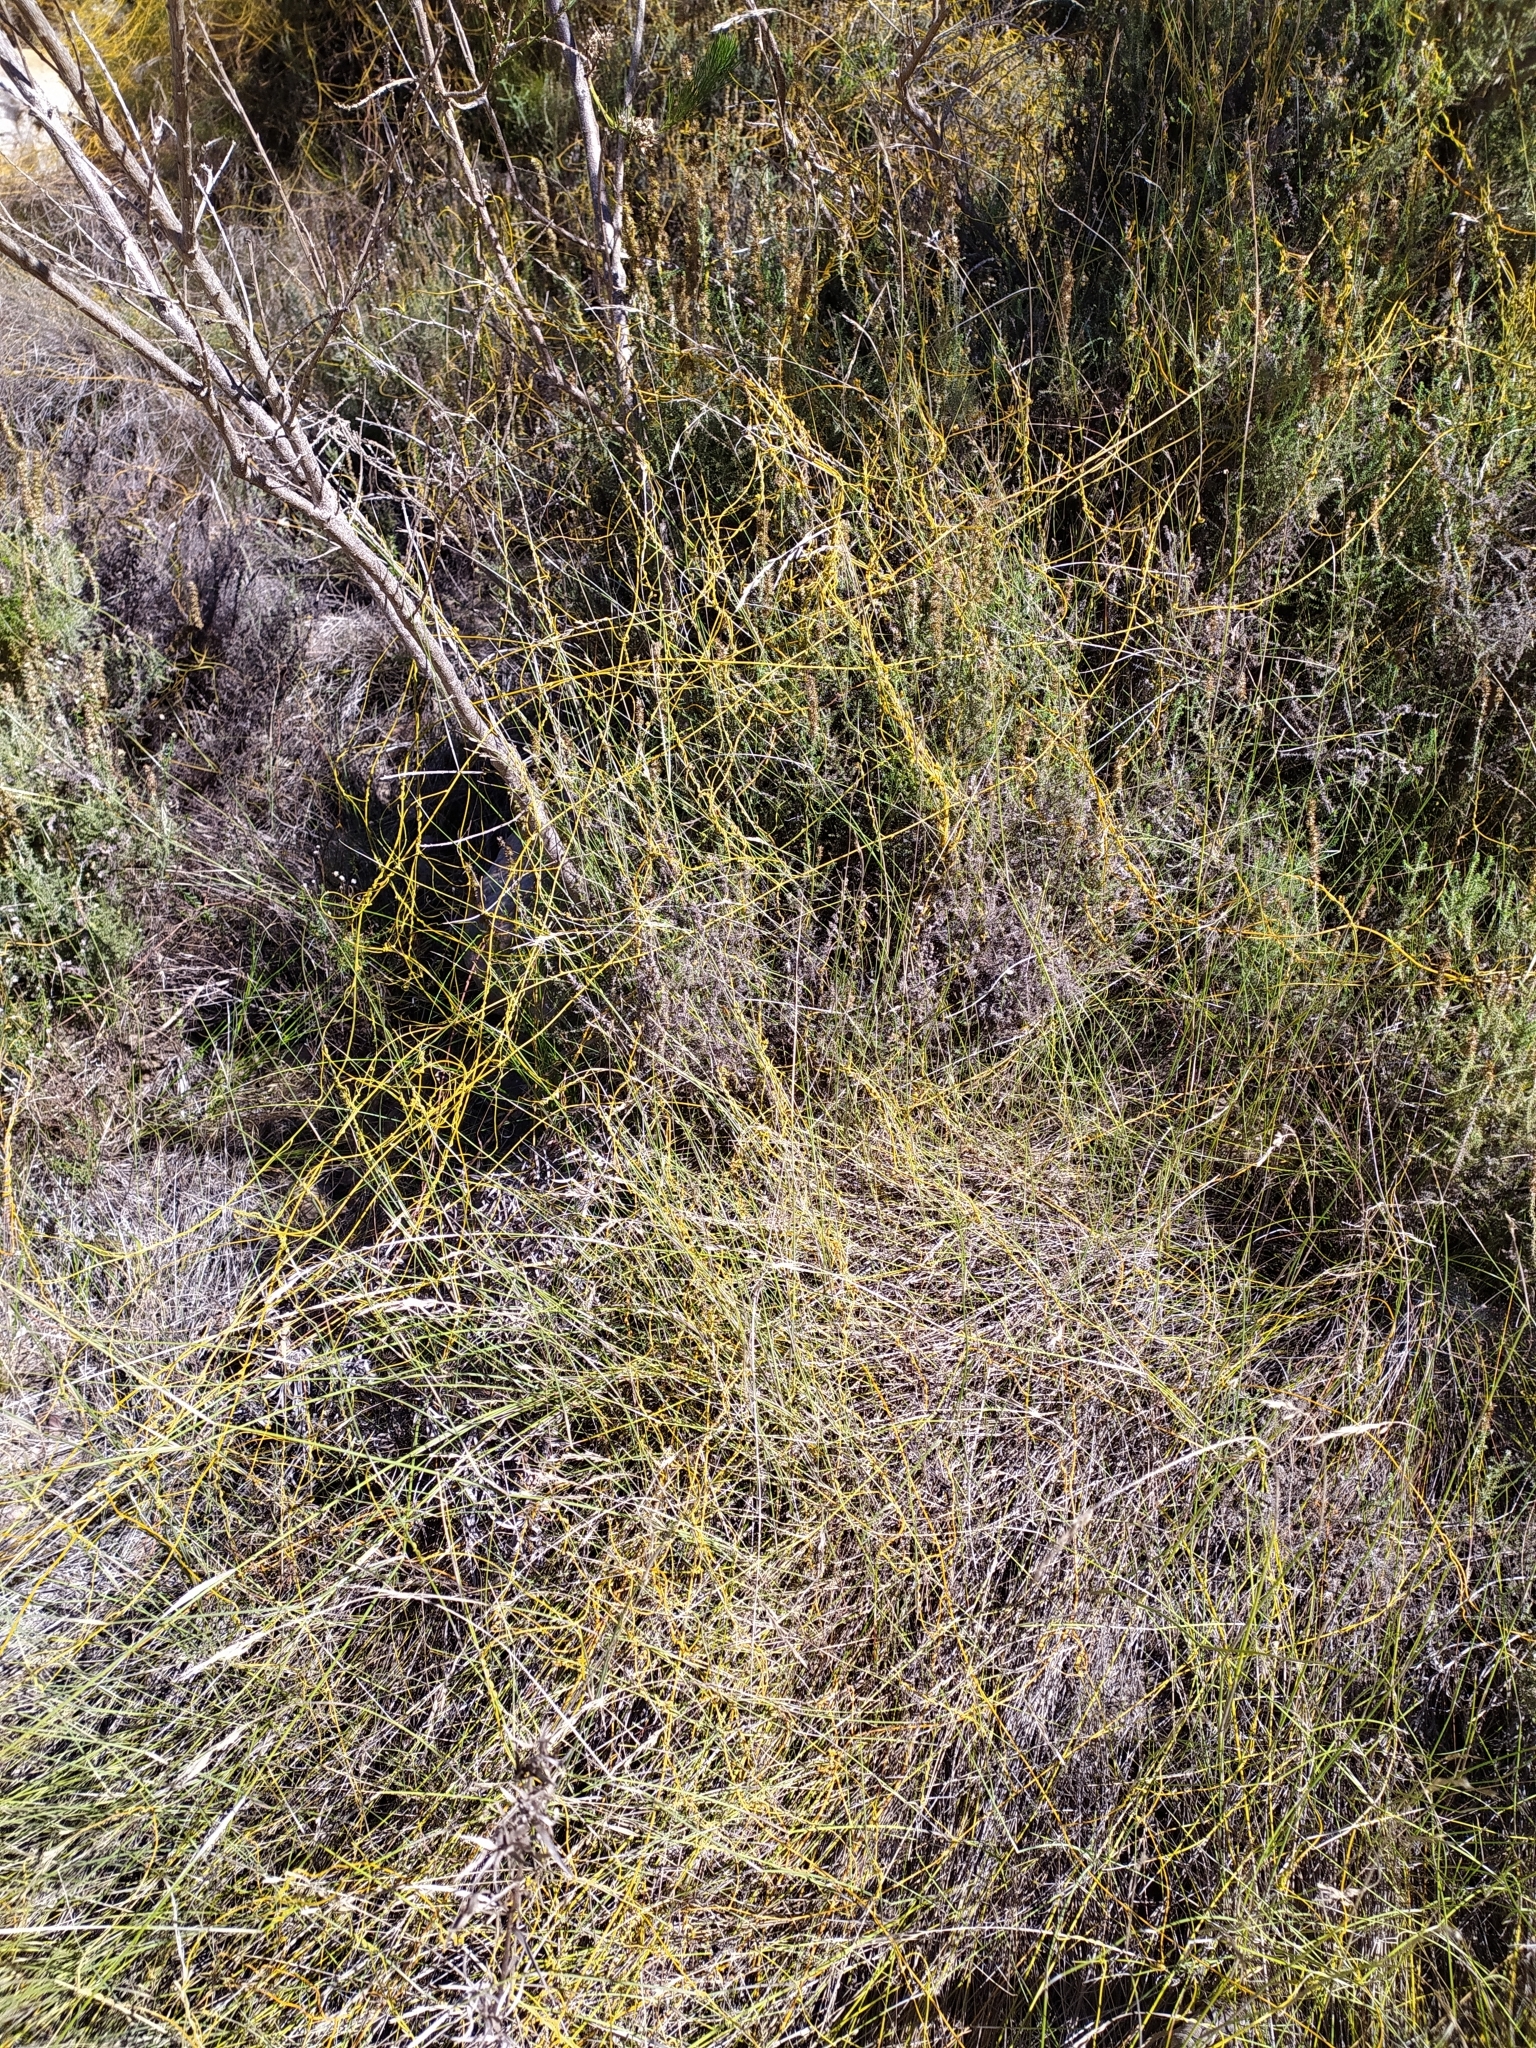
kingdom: Plantae
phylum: Tracheophyta
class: Magnoliopsida
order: Laurales
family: Lauraceae
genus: Cassytha
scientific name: Cassytha ciliolata
